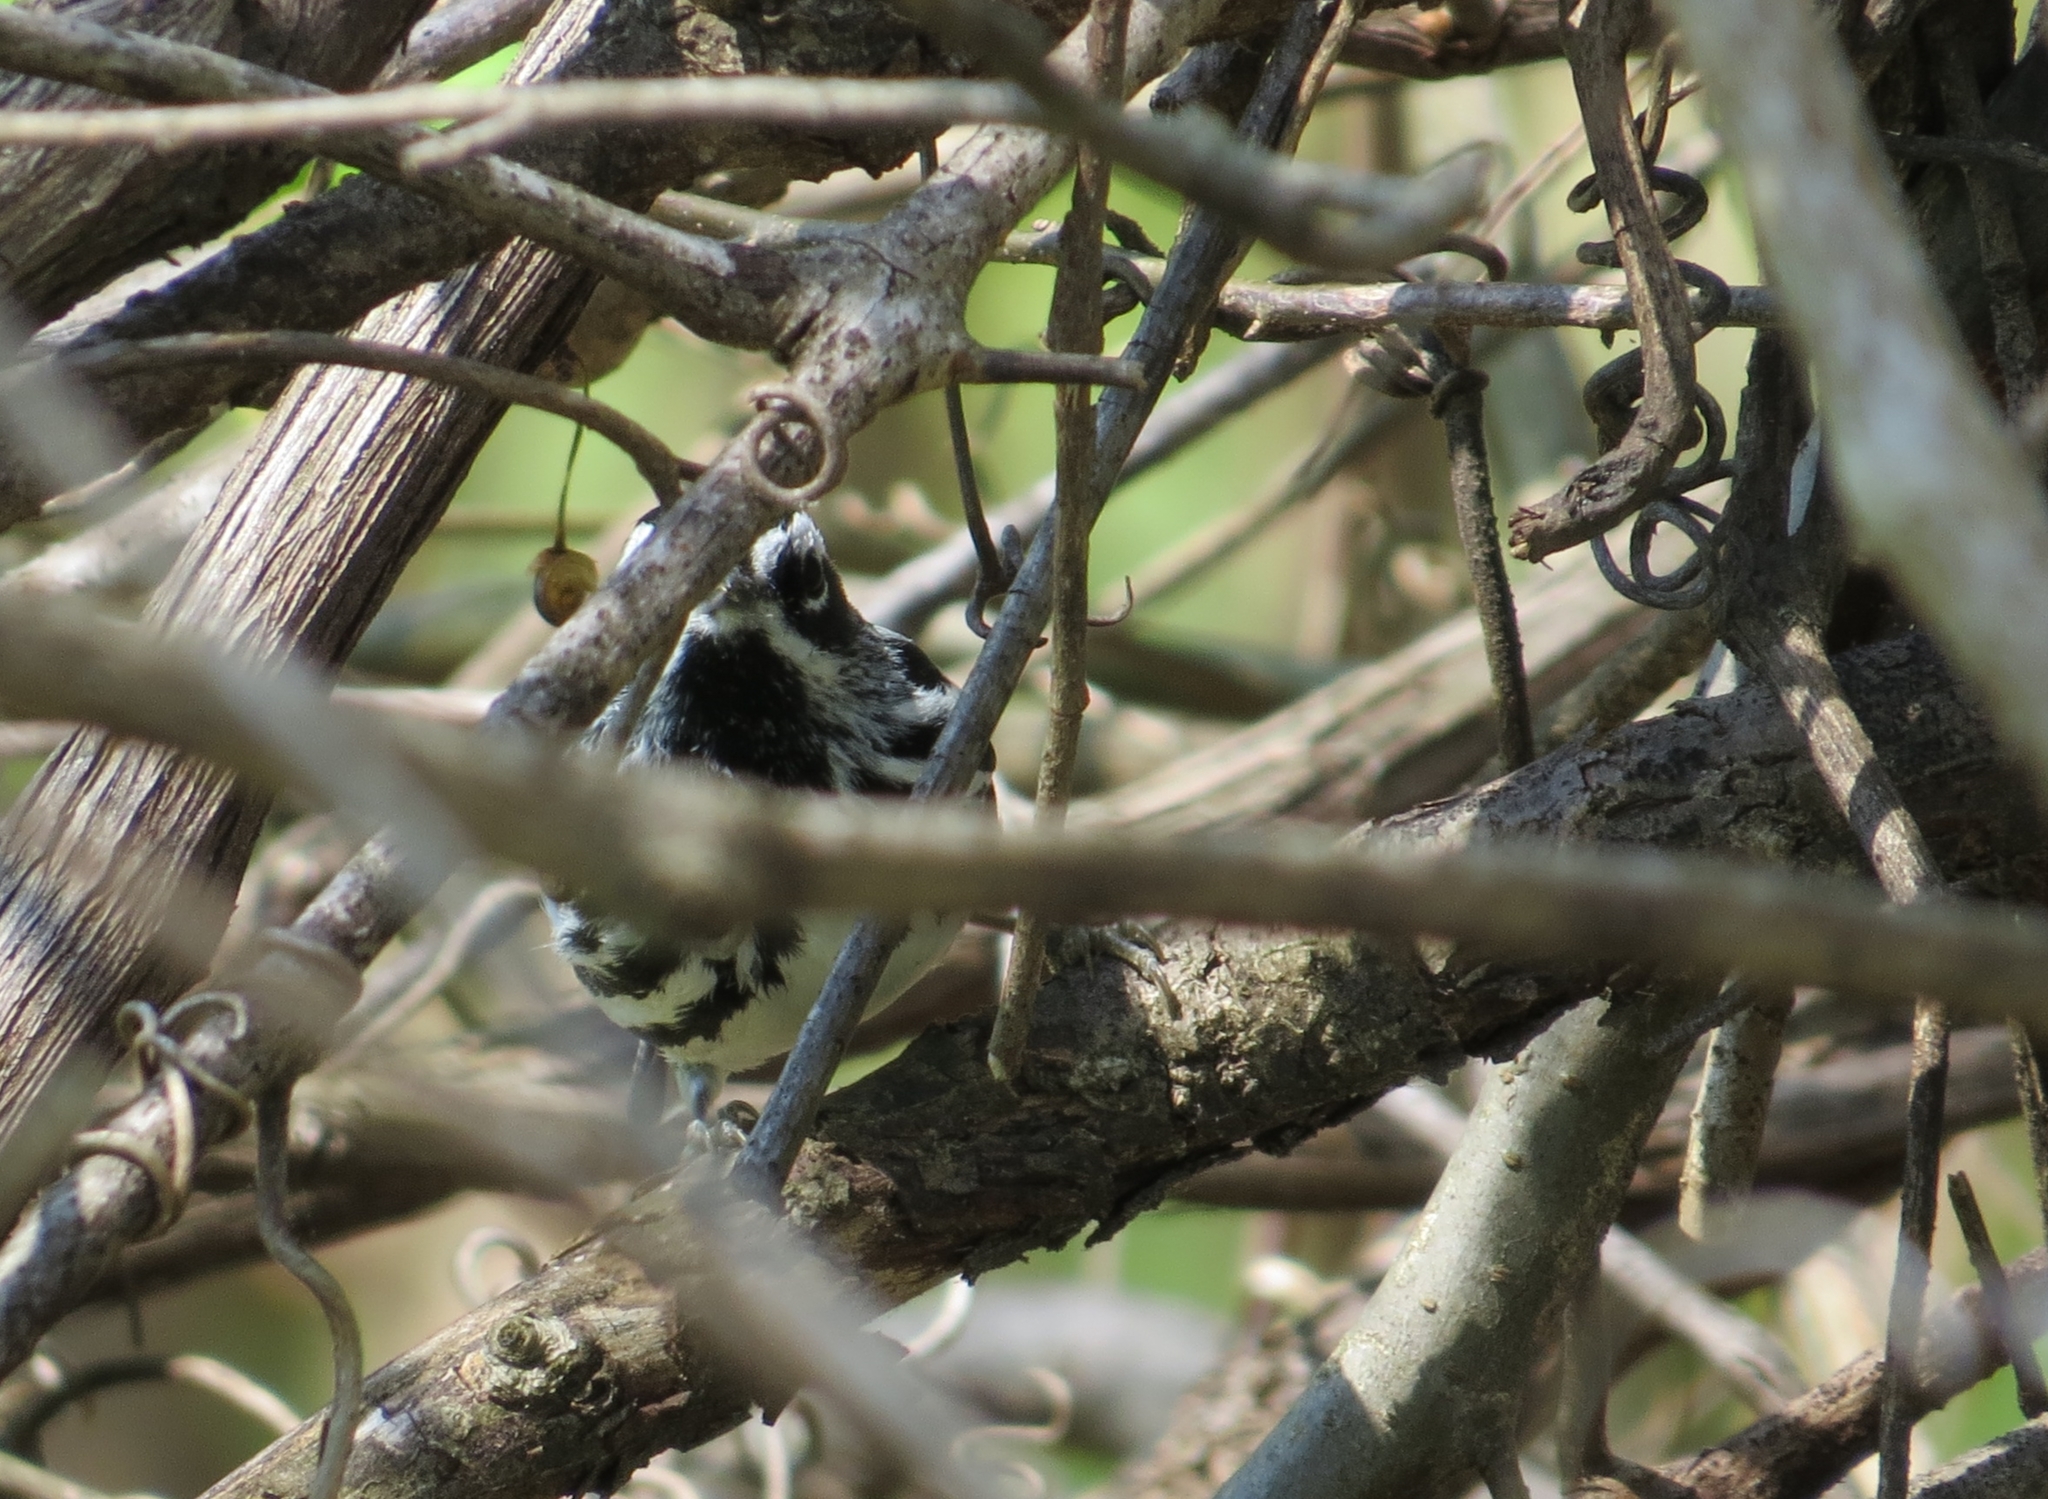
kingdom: Animalia
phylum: Chordata
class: Aves
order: Passeriformes
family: Parulidae
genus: Mniotilta
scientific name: Mniotilta varia
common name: Black-and-white warbler
